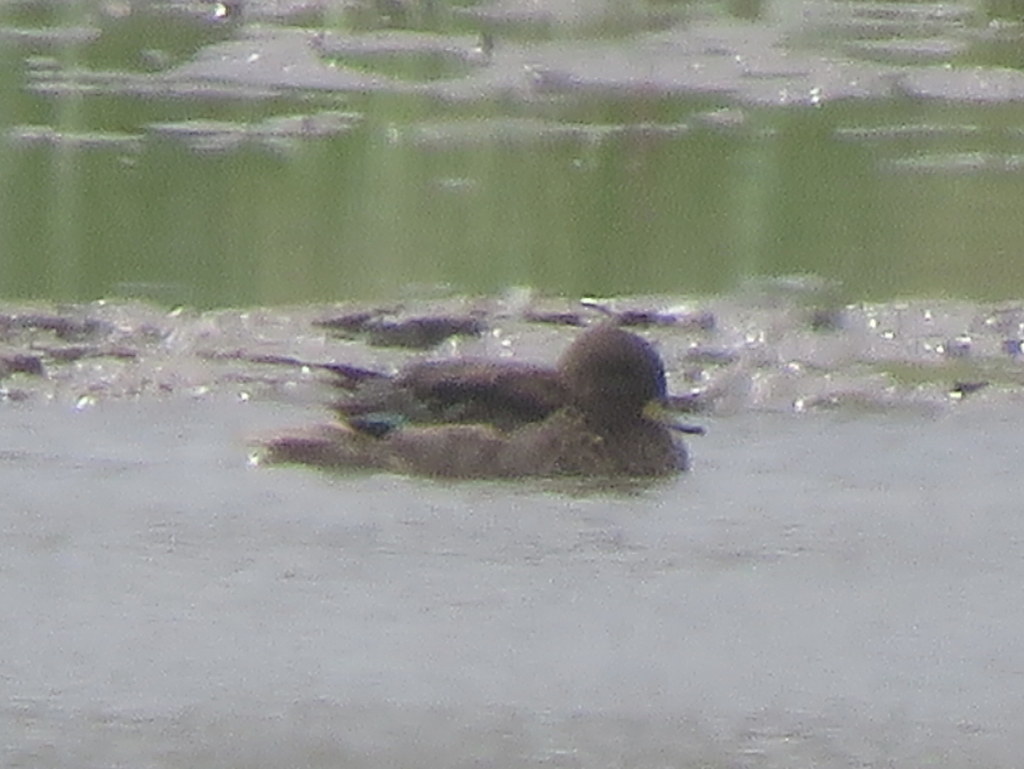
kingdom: Animalia
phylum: Chordata
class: Aves
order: Anseriformes
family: Anatidae
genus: Anas
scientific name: Anas flavirostris
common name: Yellow-billed teal
